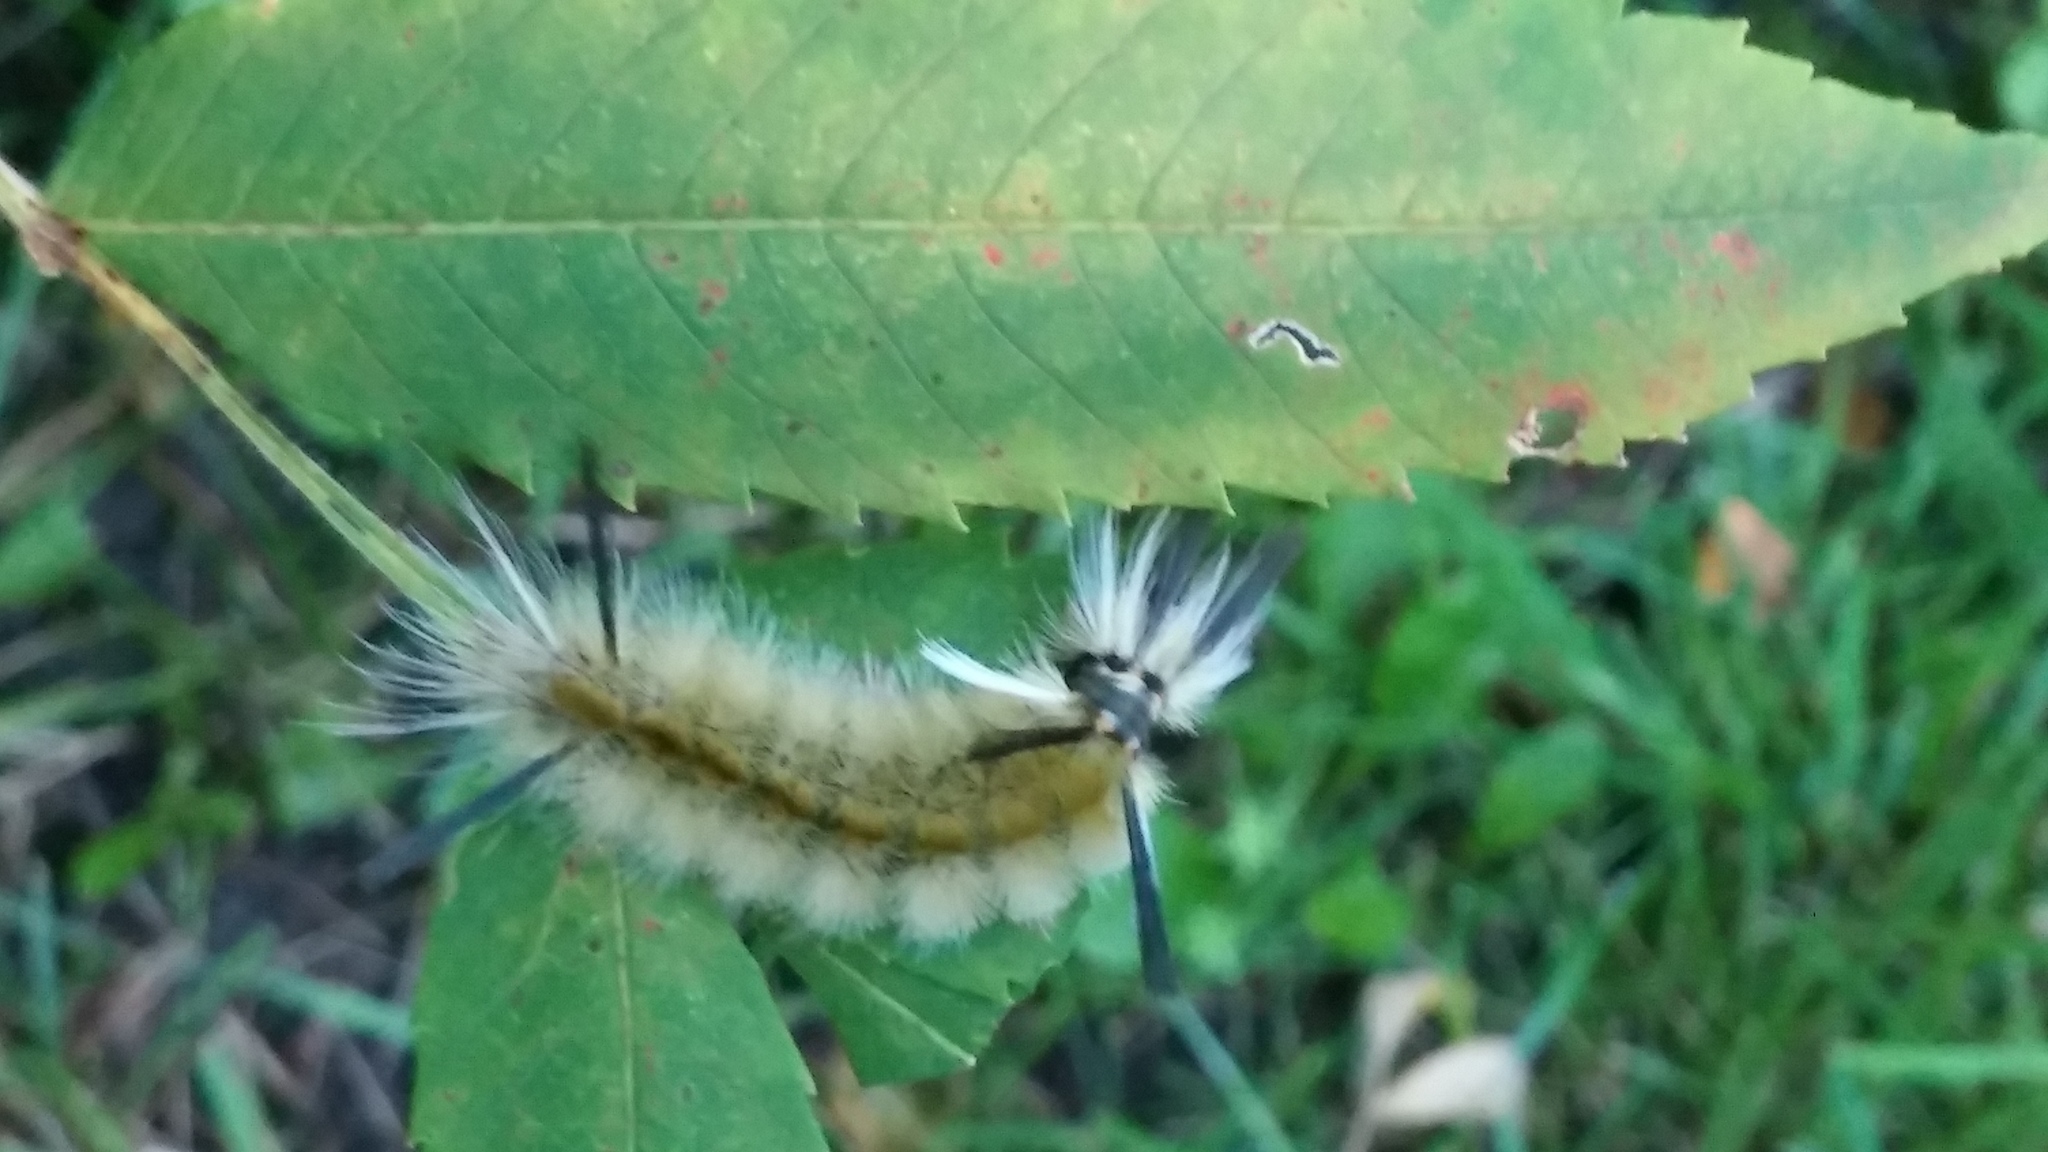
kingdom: Animalia
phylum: Arthropoda
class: Insecta
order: Lepidoptera
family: Erebidae
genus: Halysidota
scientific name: Halysidota tessellaris
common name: Banded tussock moth
